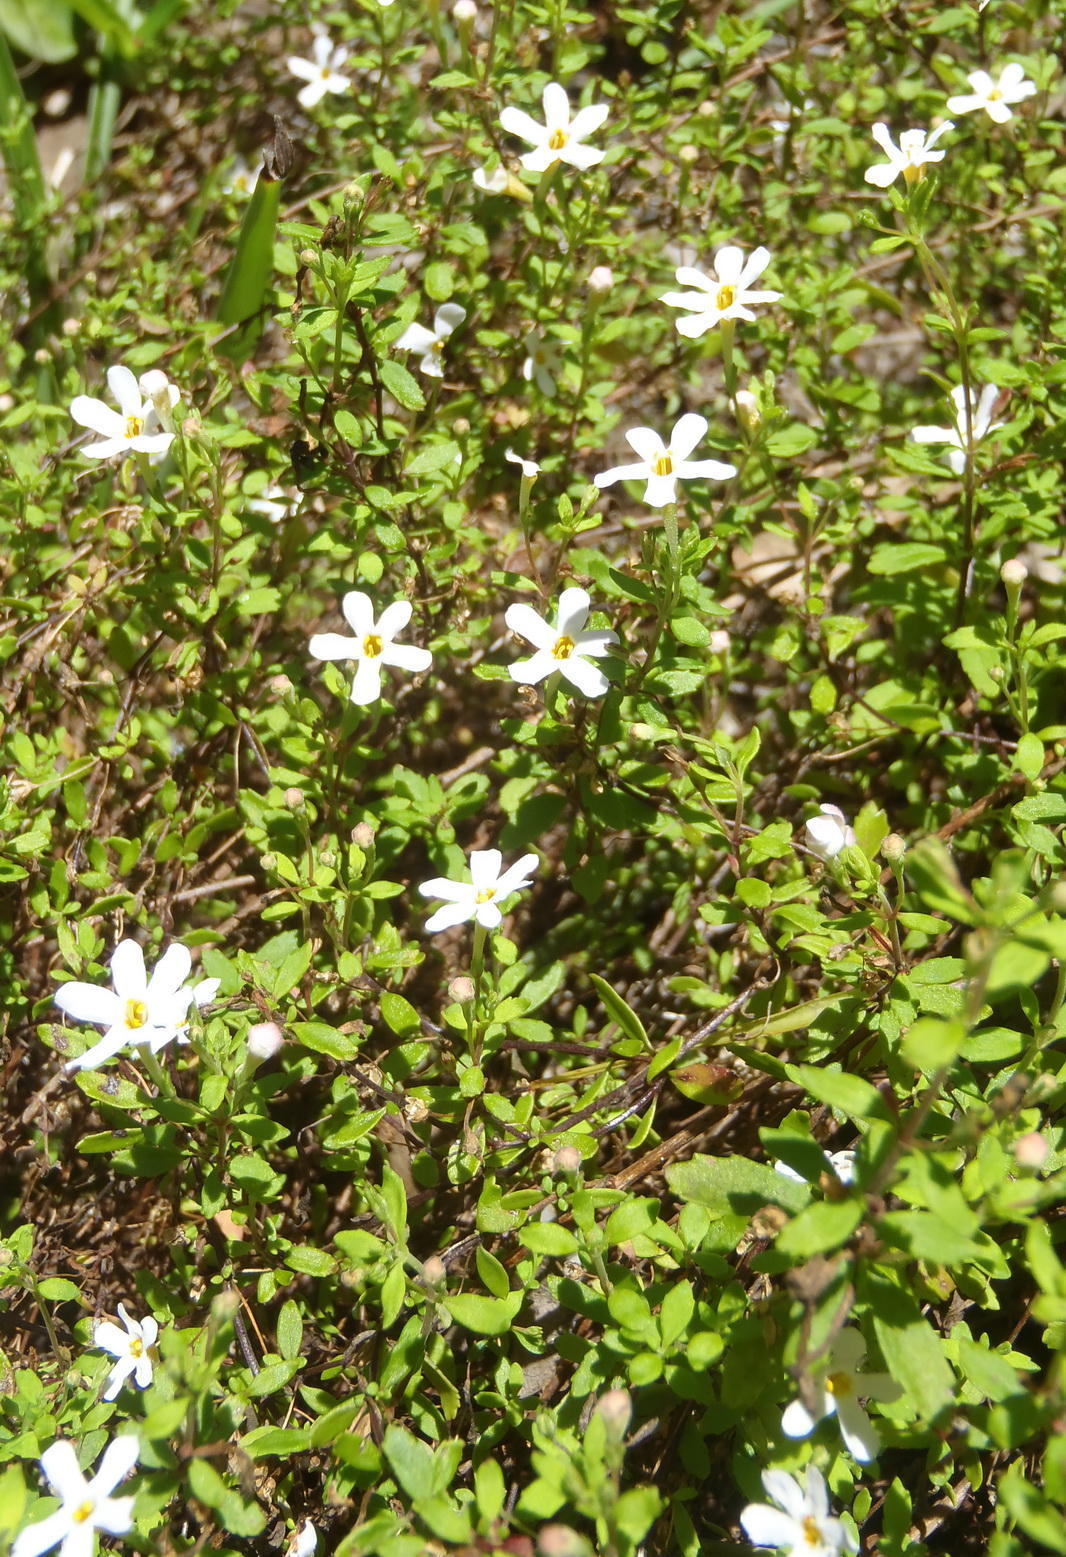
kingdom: Plantae
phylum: Tracheophyta
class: Magnoliopsida
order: Lamiales
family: Scrophulariaceae
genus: Chaenostoma
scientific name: Chaenostoma revolutum
